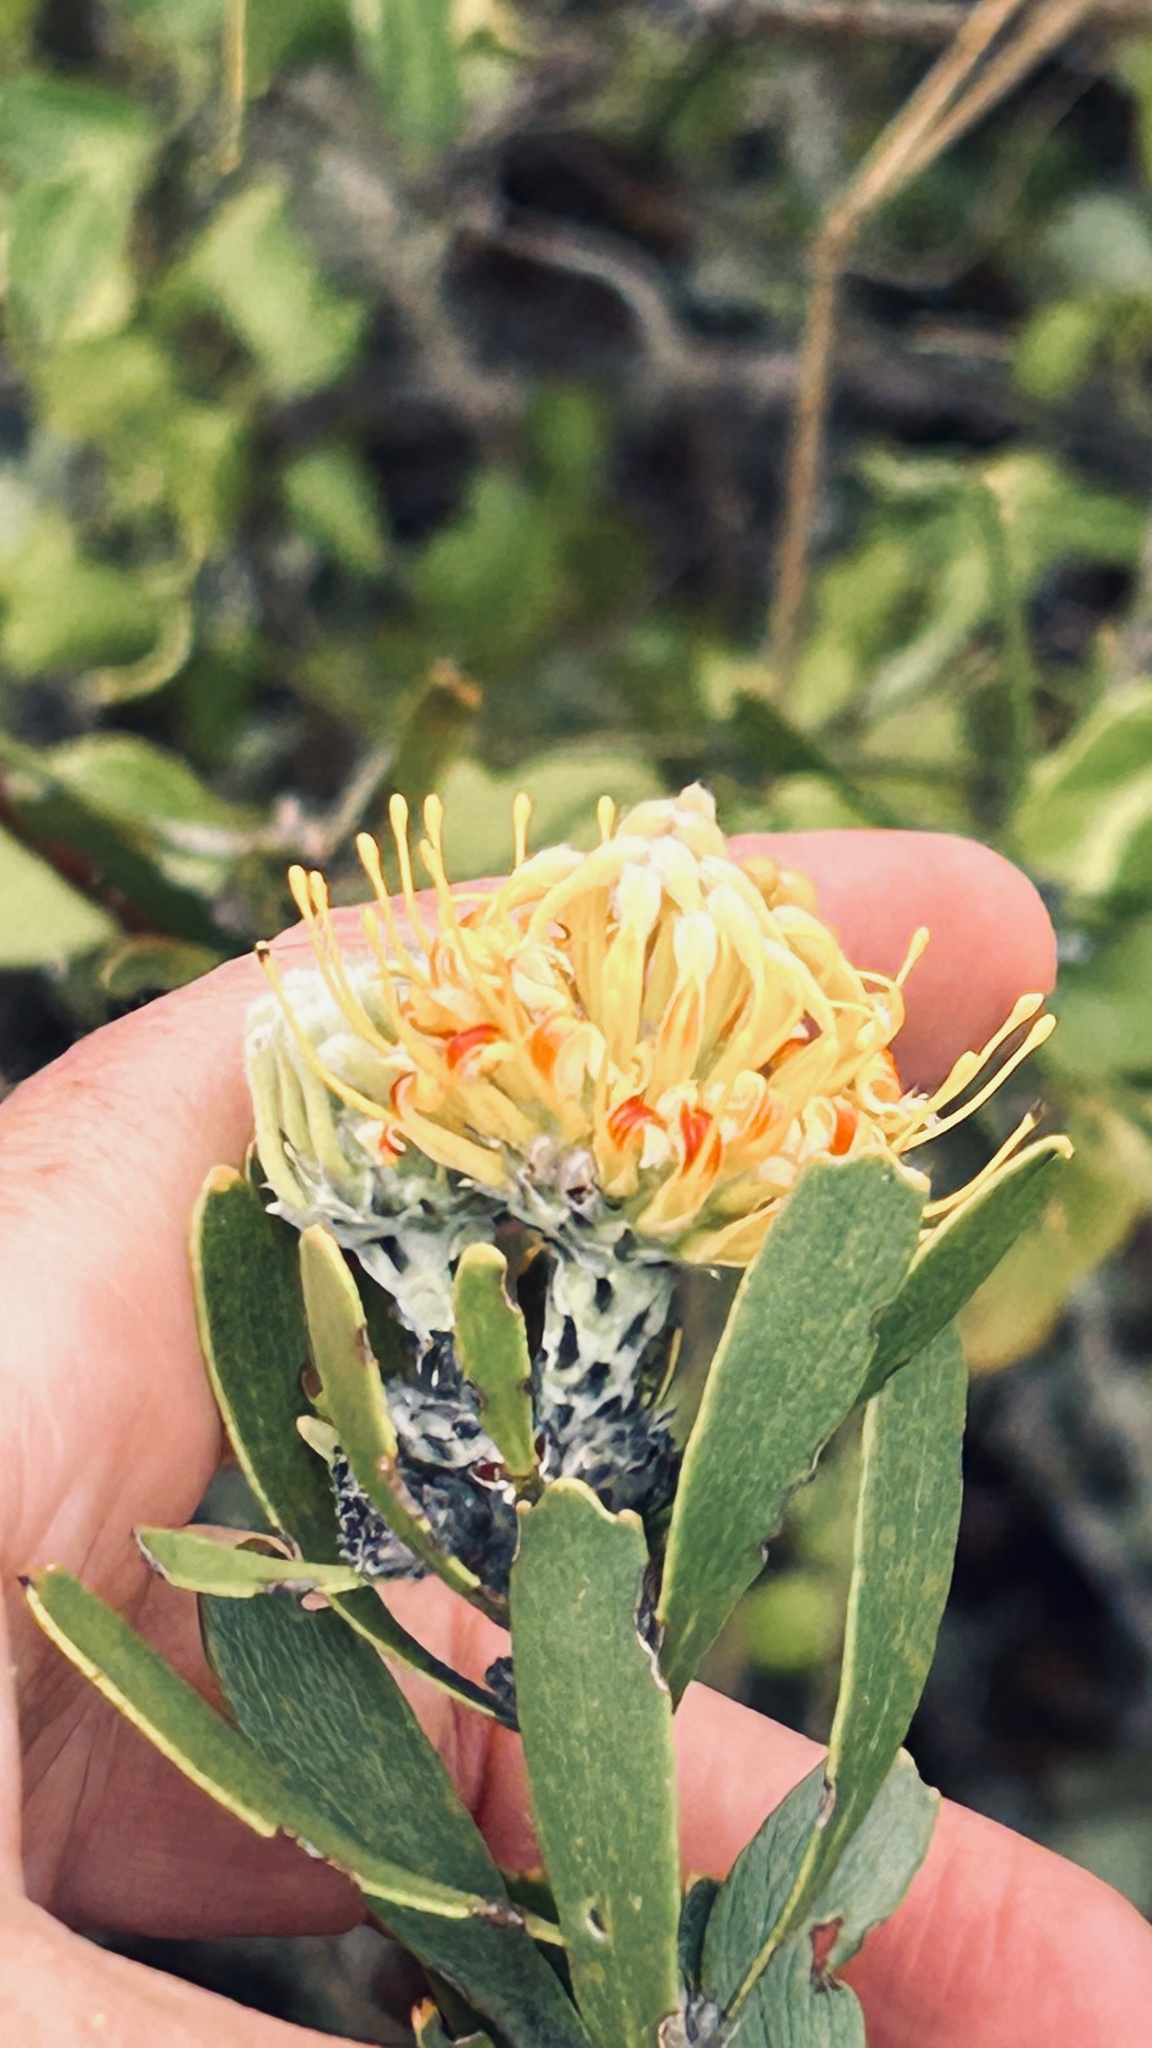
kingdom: Plantae
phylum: Tracheophyta
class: Magnoliopsida
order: Proteales
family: Proteaceae
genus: Leucospermum
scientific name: Leucospermum muirii
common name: Albertinia pincushion
